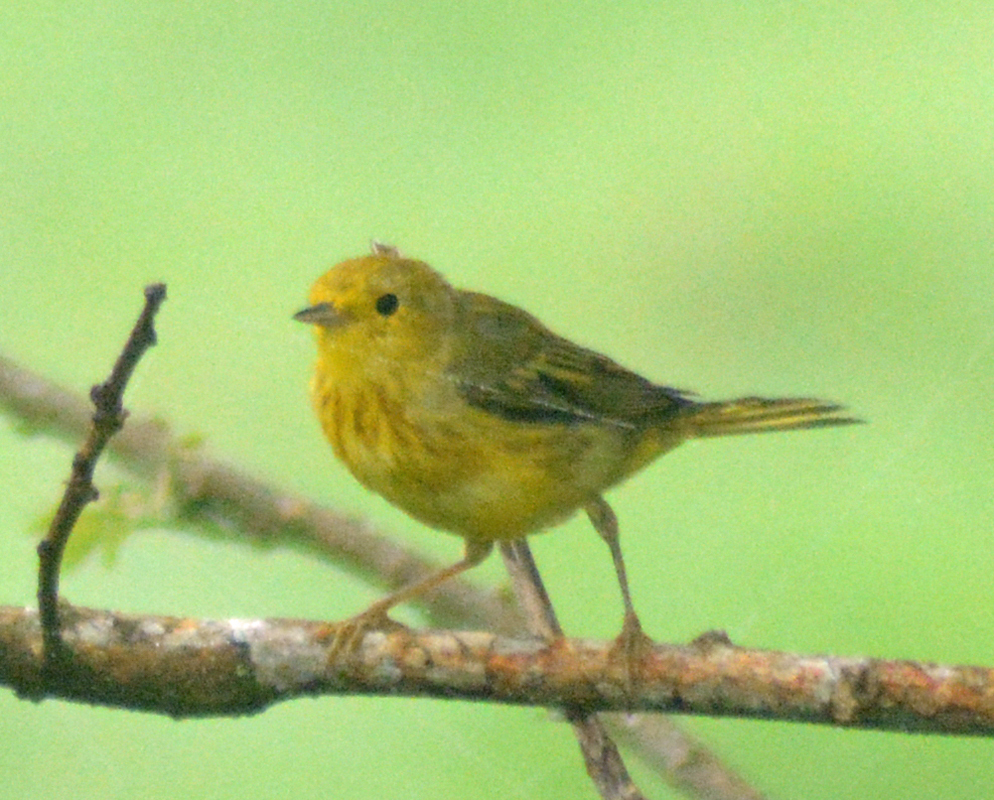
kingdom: Animalia
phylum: Chordata
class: Aves
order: Passeriformes
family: Parulidae
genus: Setophaga
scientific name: Setophaga petechia
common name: Yellow warbler
